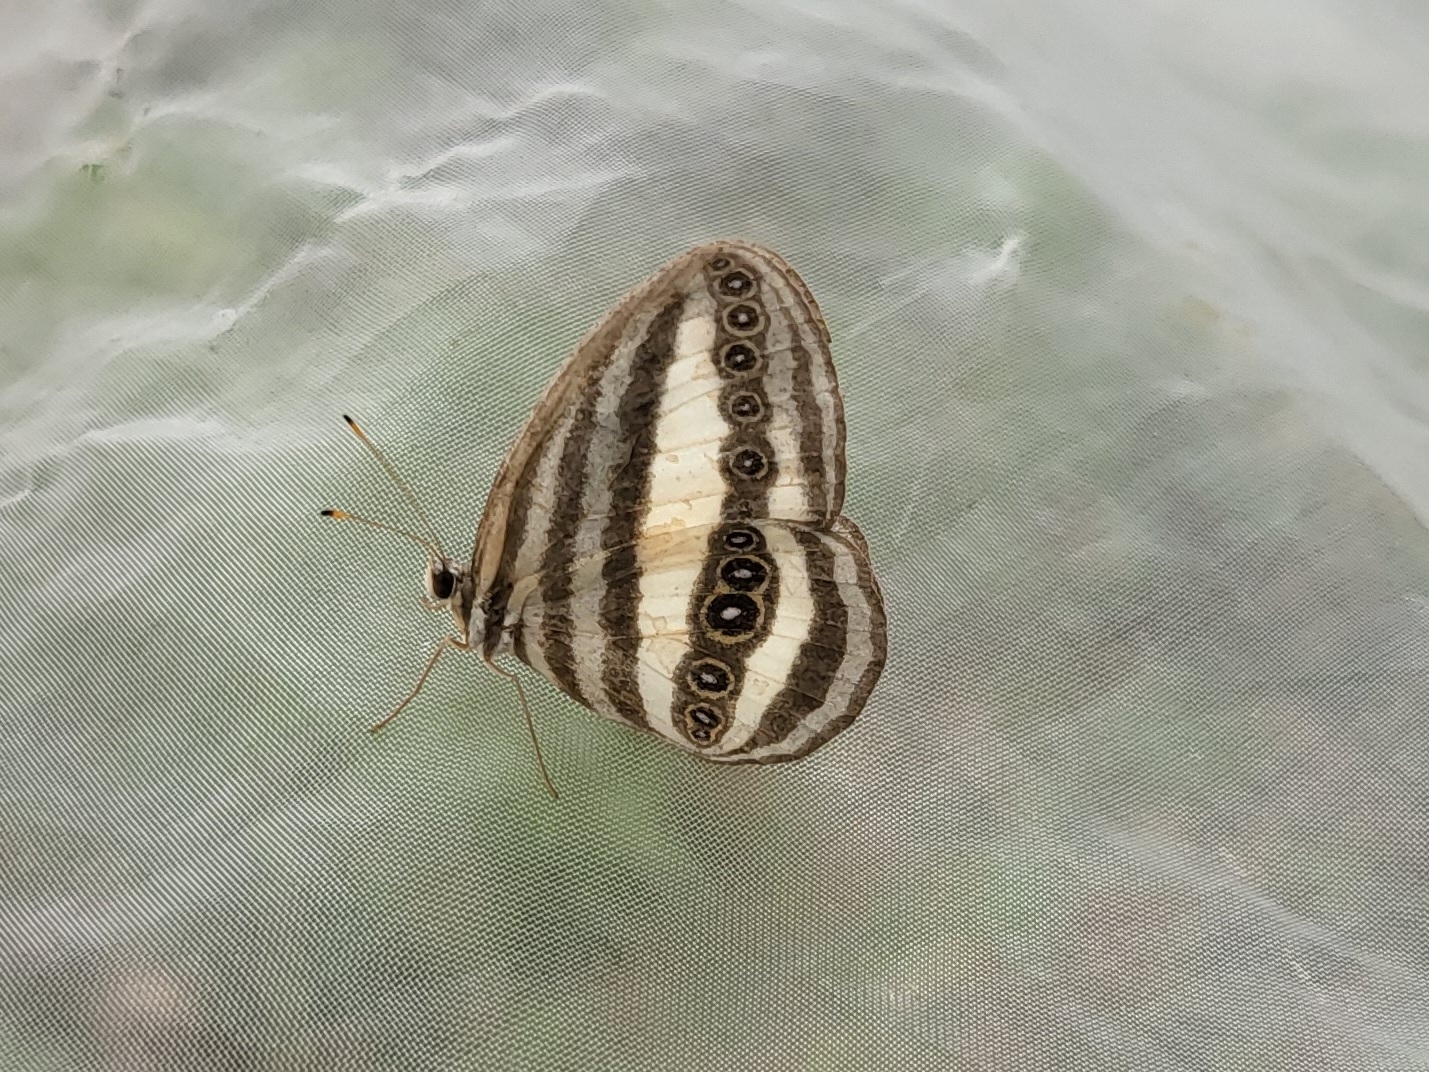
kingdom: Animalia
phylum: Arthropoda
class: Insecta
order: Lepidoptera
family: Nymphalidae
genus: Ragadia
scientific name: Ragadia crisilda
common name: White-striped ringlet
